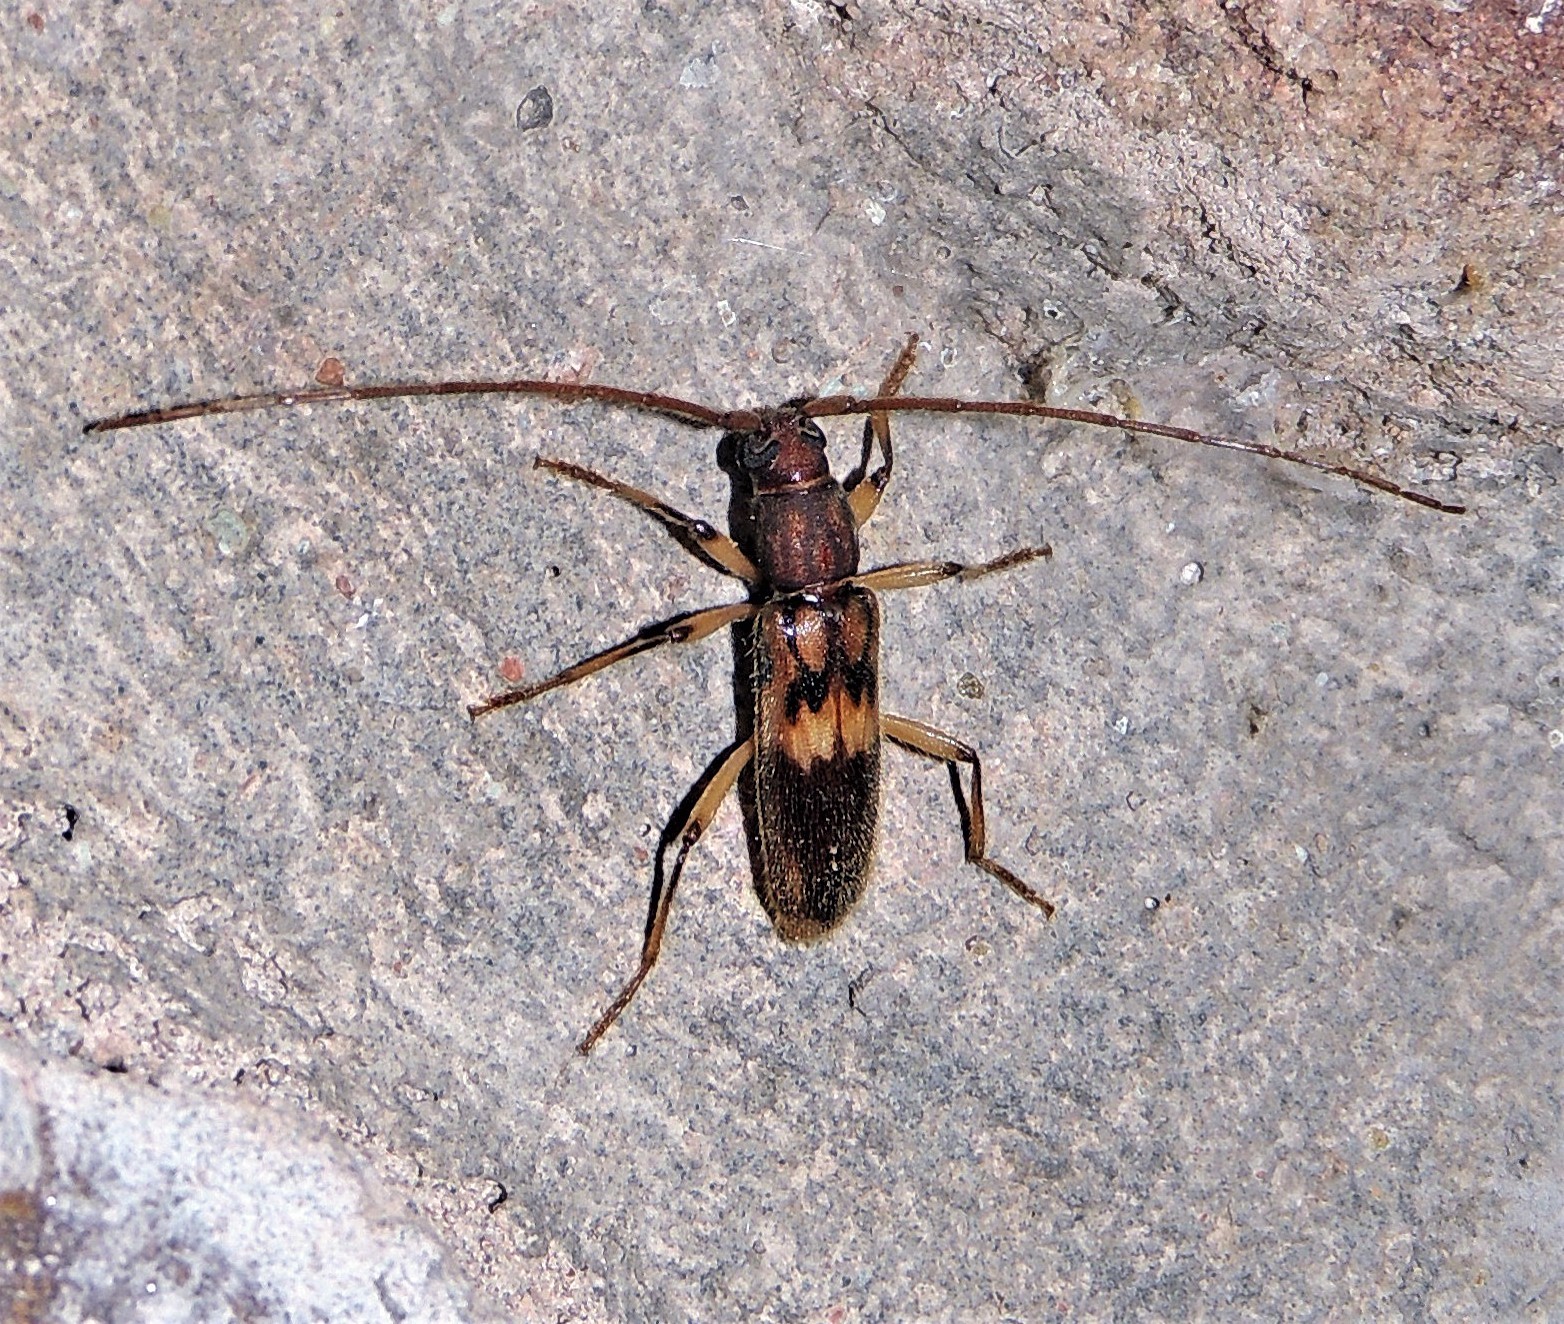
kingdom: Animalia
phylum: Arthropoda
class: Insecta
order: Coleoptera
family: Cerambycidae
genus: Achryson
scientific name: Achryson lutarium
